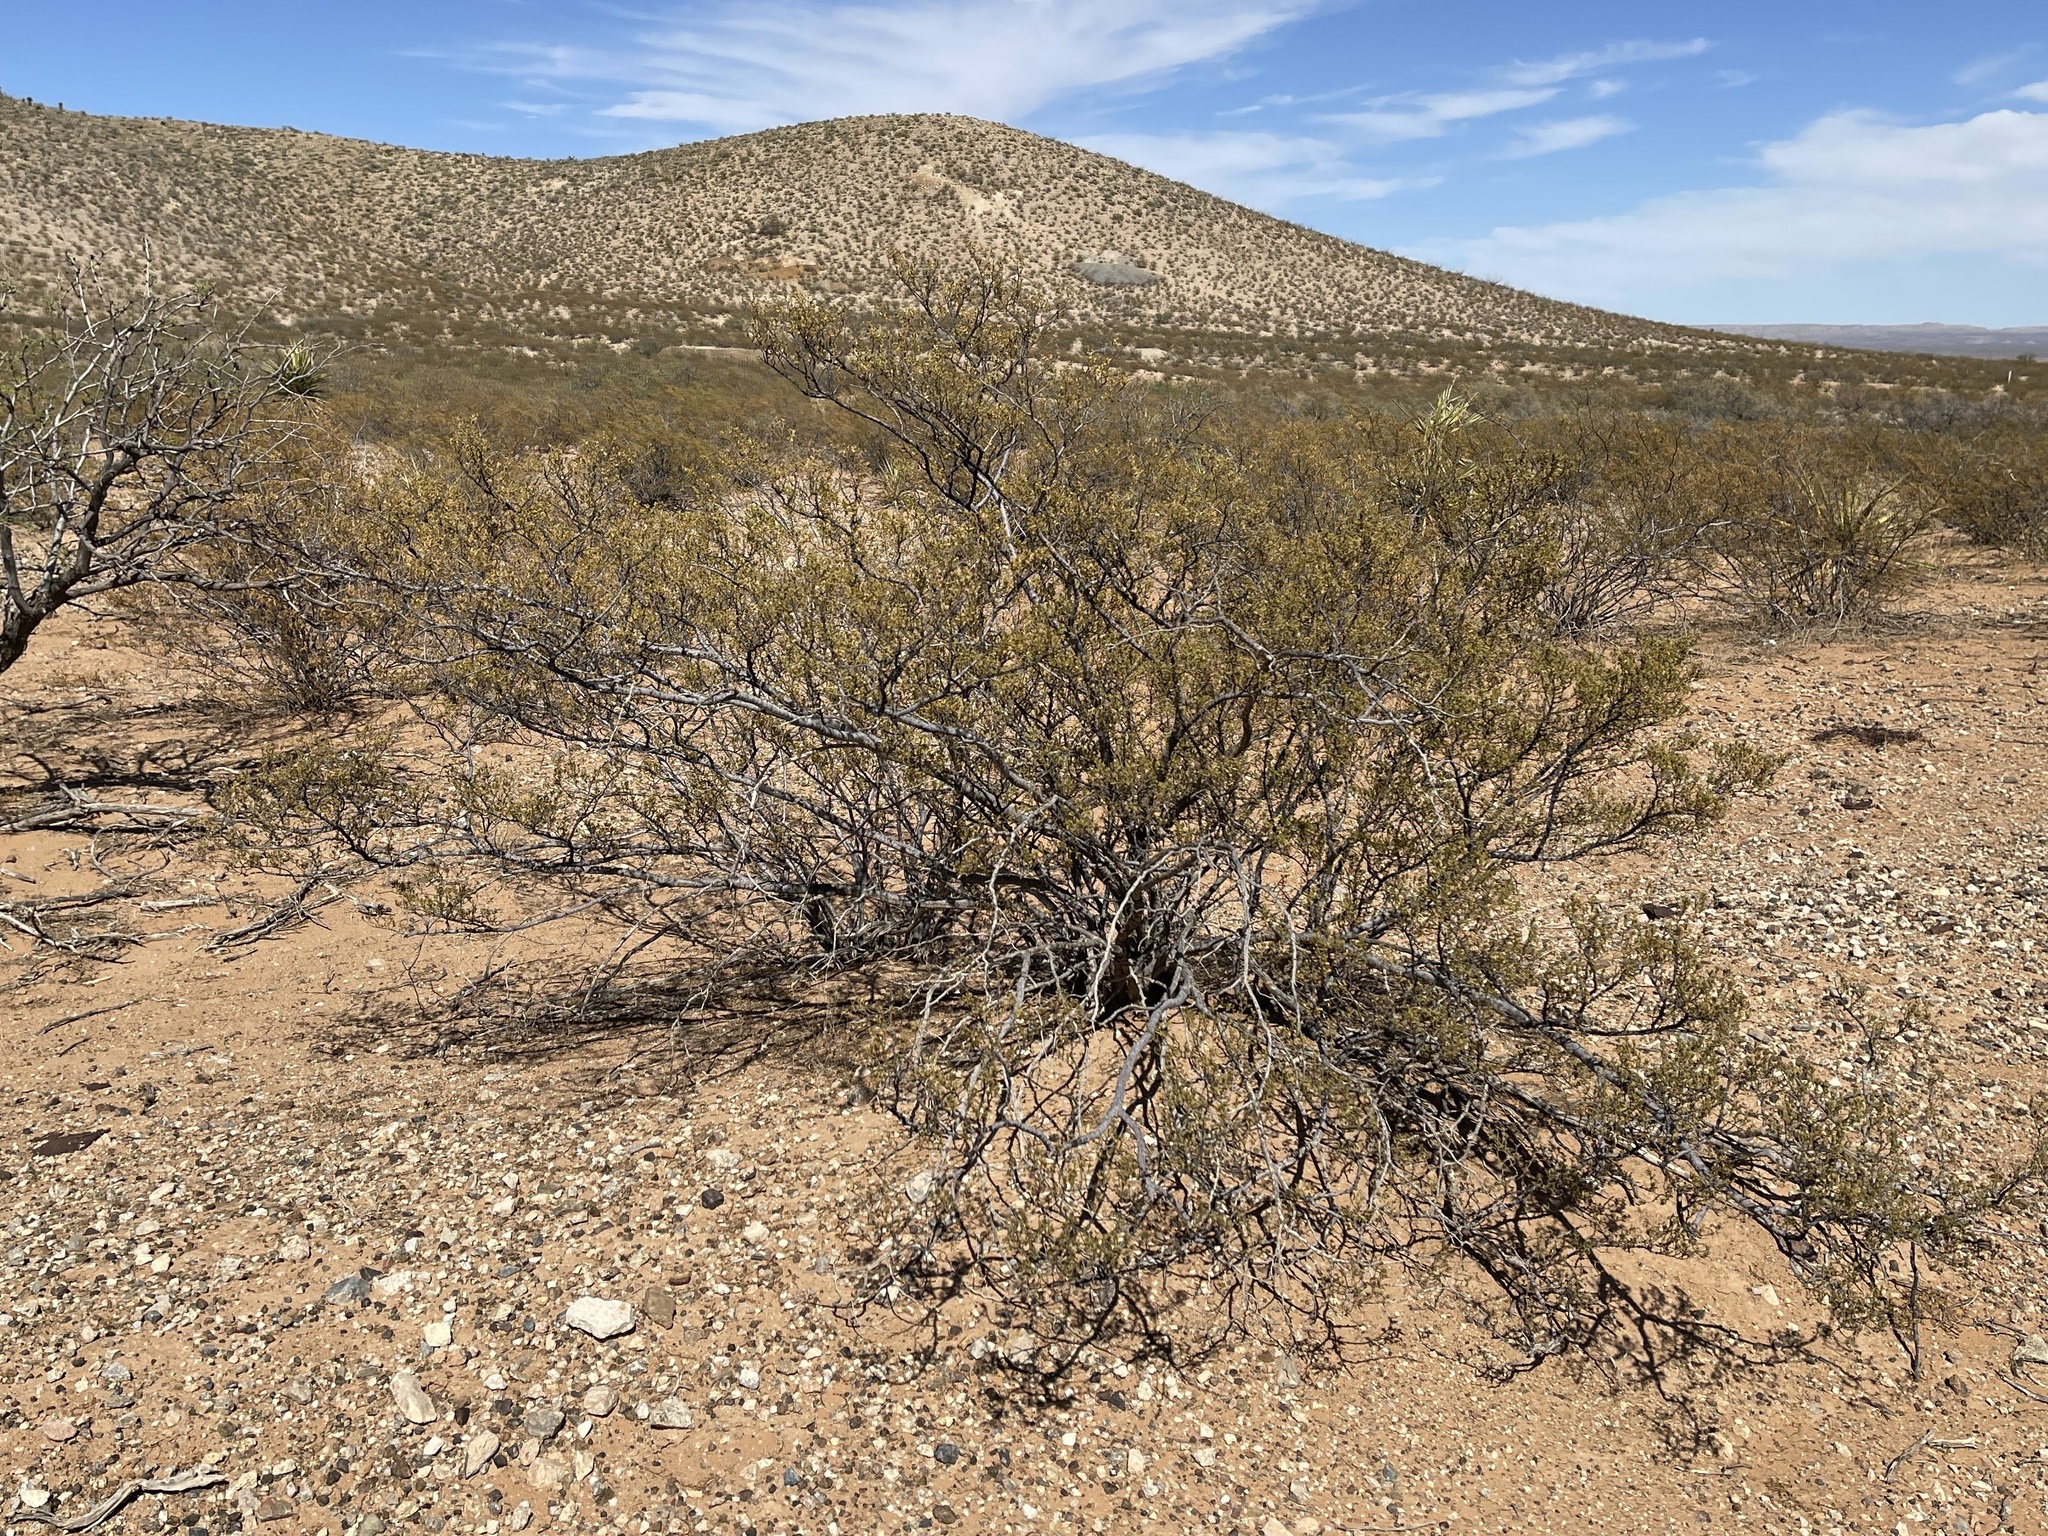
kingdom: Plantae
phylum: Tracheophyta
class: Magnoliopsida
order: Zygophyllales
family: Zygophyllaceae
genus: Larrea
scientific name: Larrea tridentata
